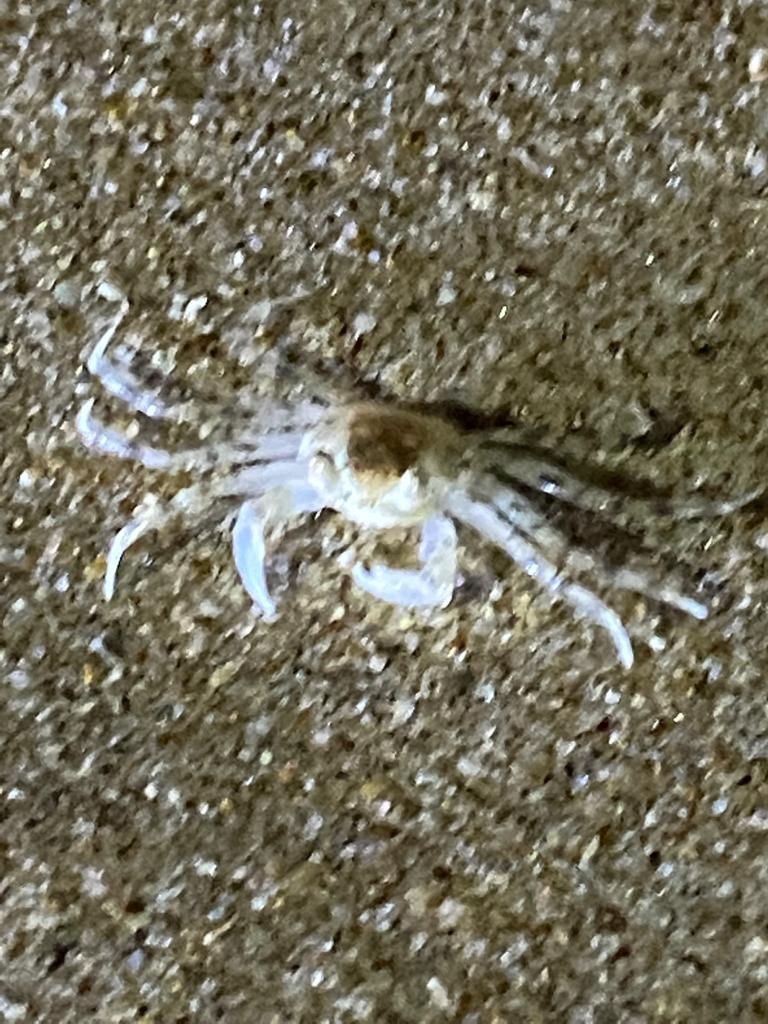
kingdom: Animalia
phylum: Arthropoda
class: Malacostraca
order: Decapoda
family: Ocypodidae
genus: Ocypode
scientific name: Ocypode
